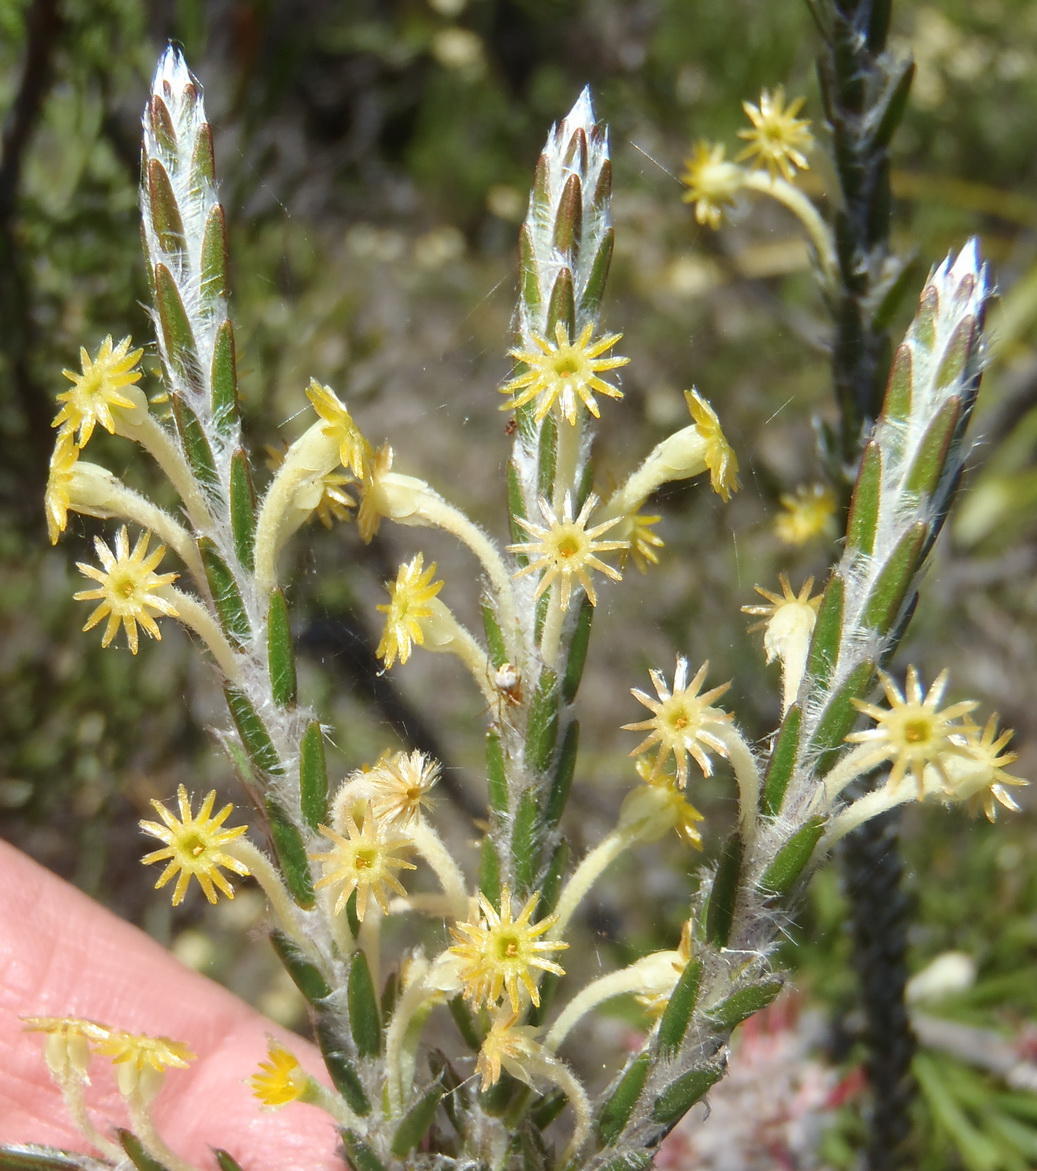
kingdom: Plantae
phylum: Tracheophyta
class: Magnoliopsida
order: Malvales
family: Thymelaeaceae
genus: Struthiola
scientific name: Struthiola fasciata
